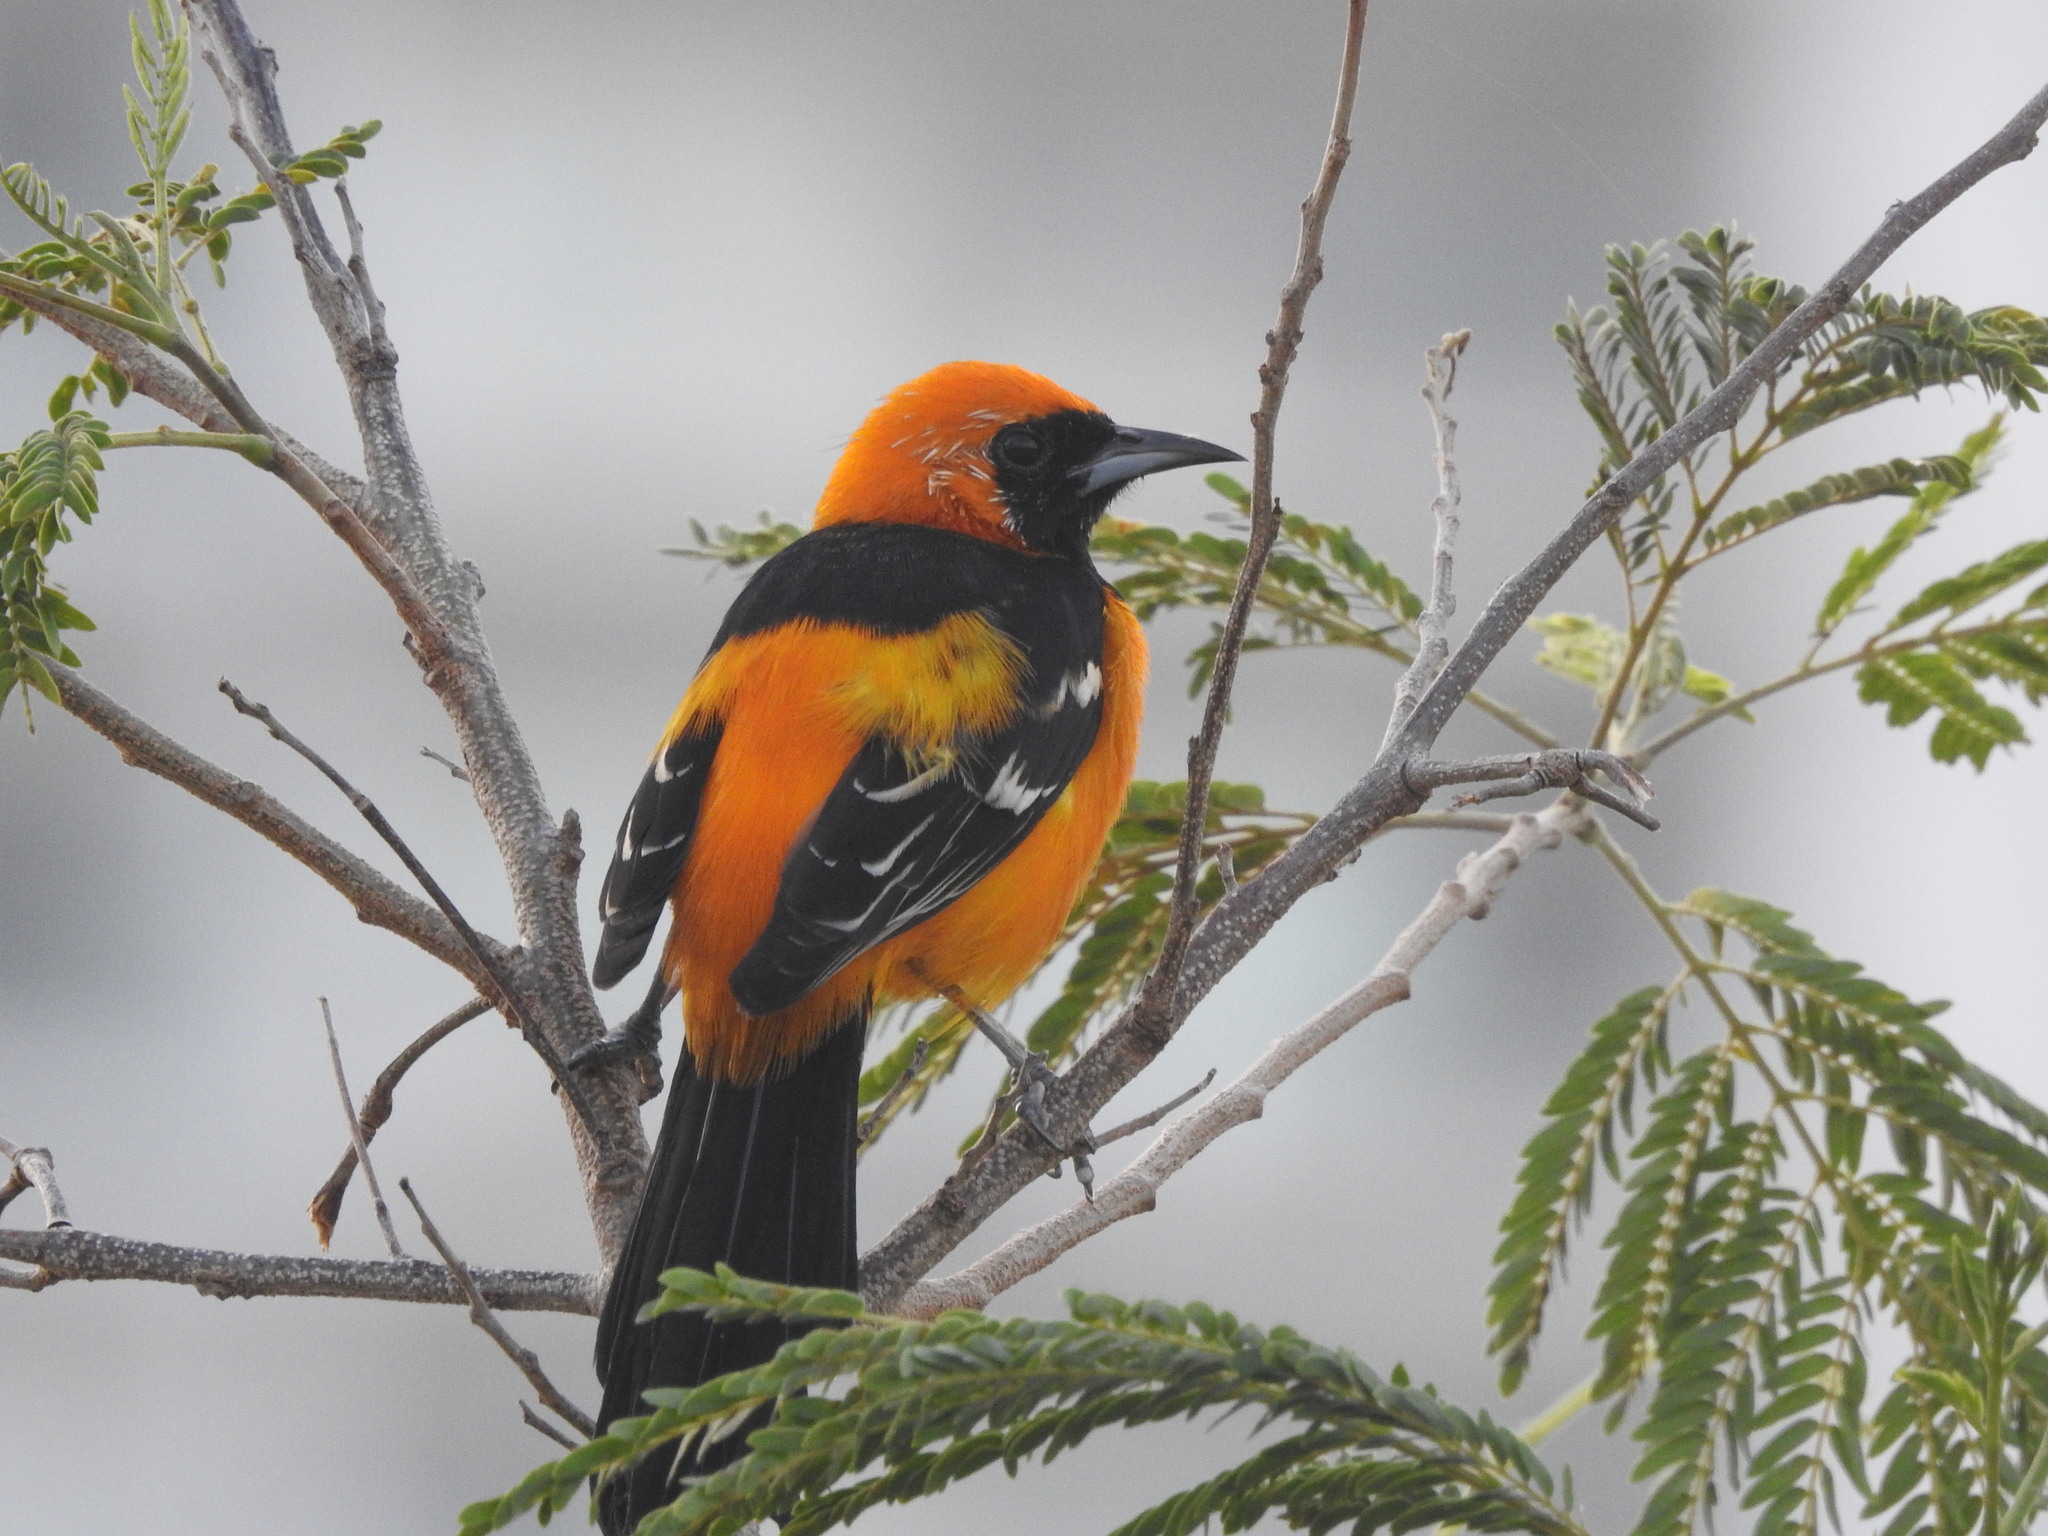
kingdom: Animalia
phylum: Chordata
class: Aves
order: Passeriformes
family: Icteridae
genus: Icterus
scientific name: Icterus cucullatus
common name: Hooded oriole
